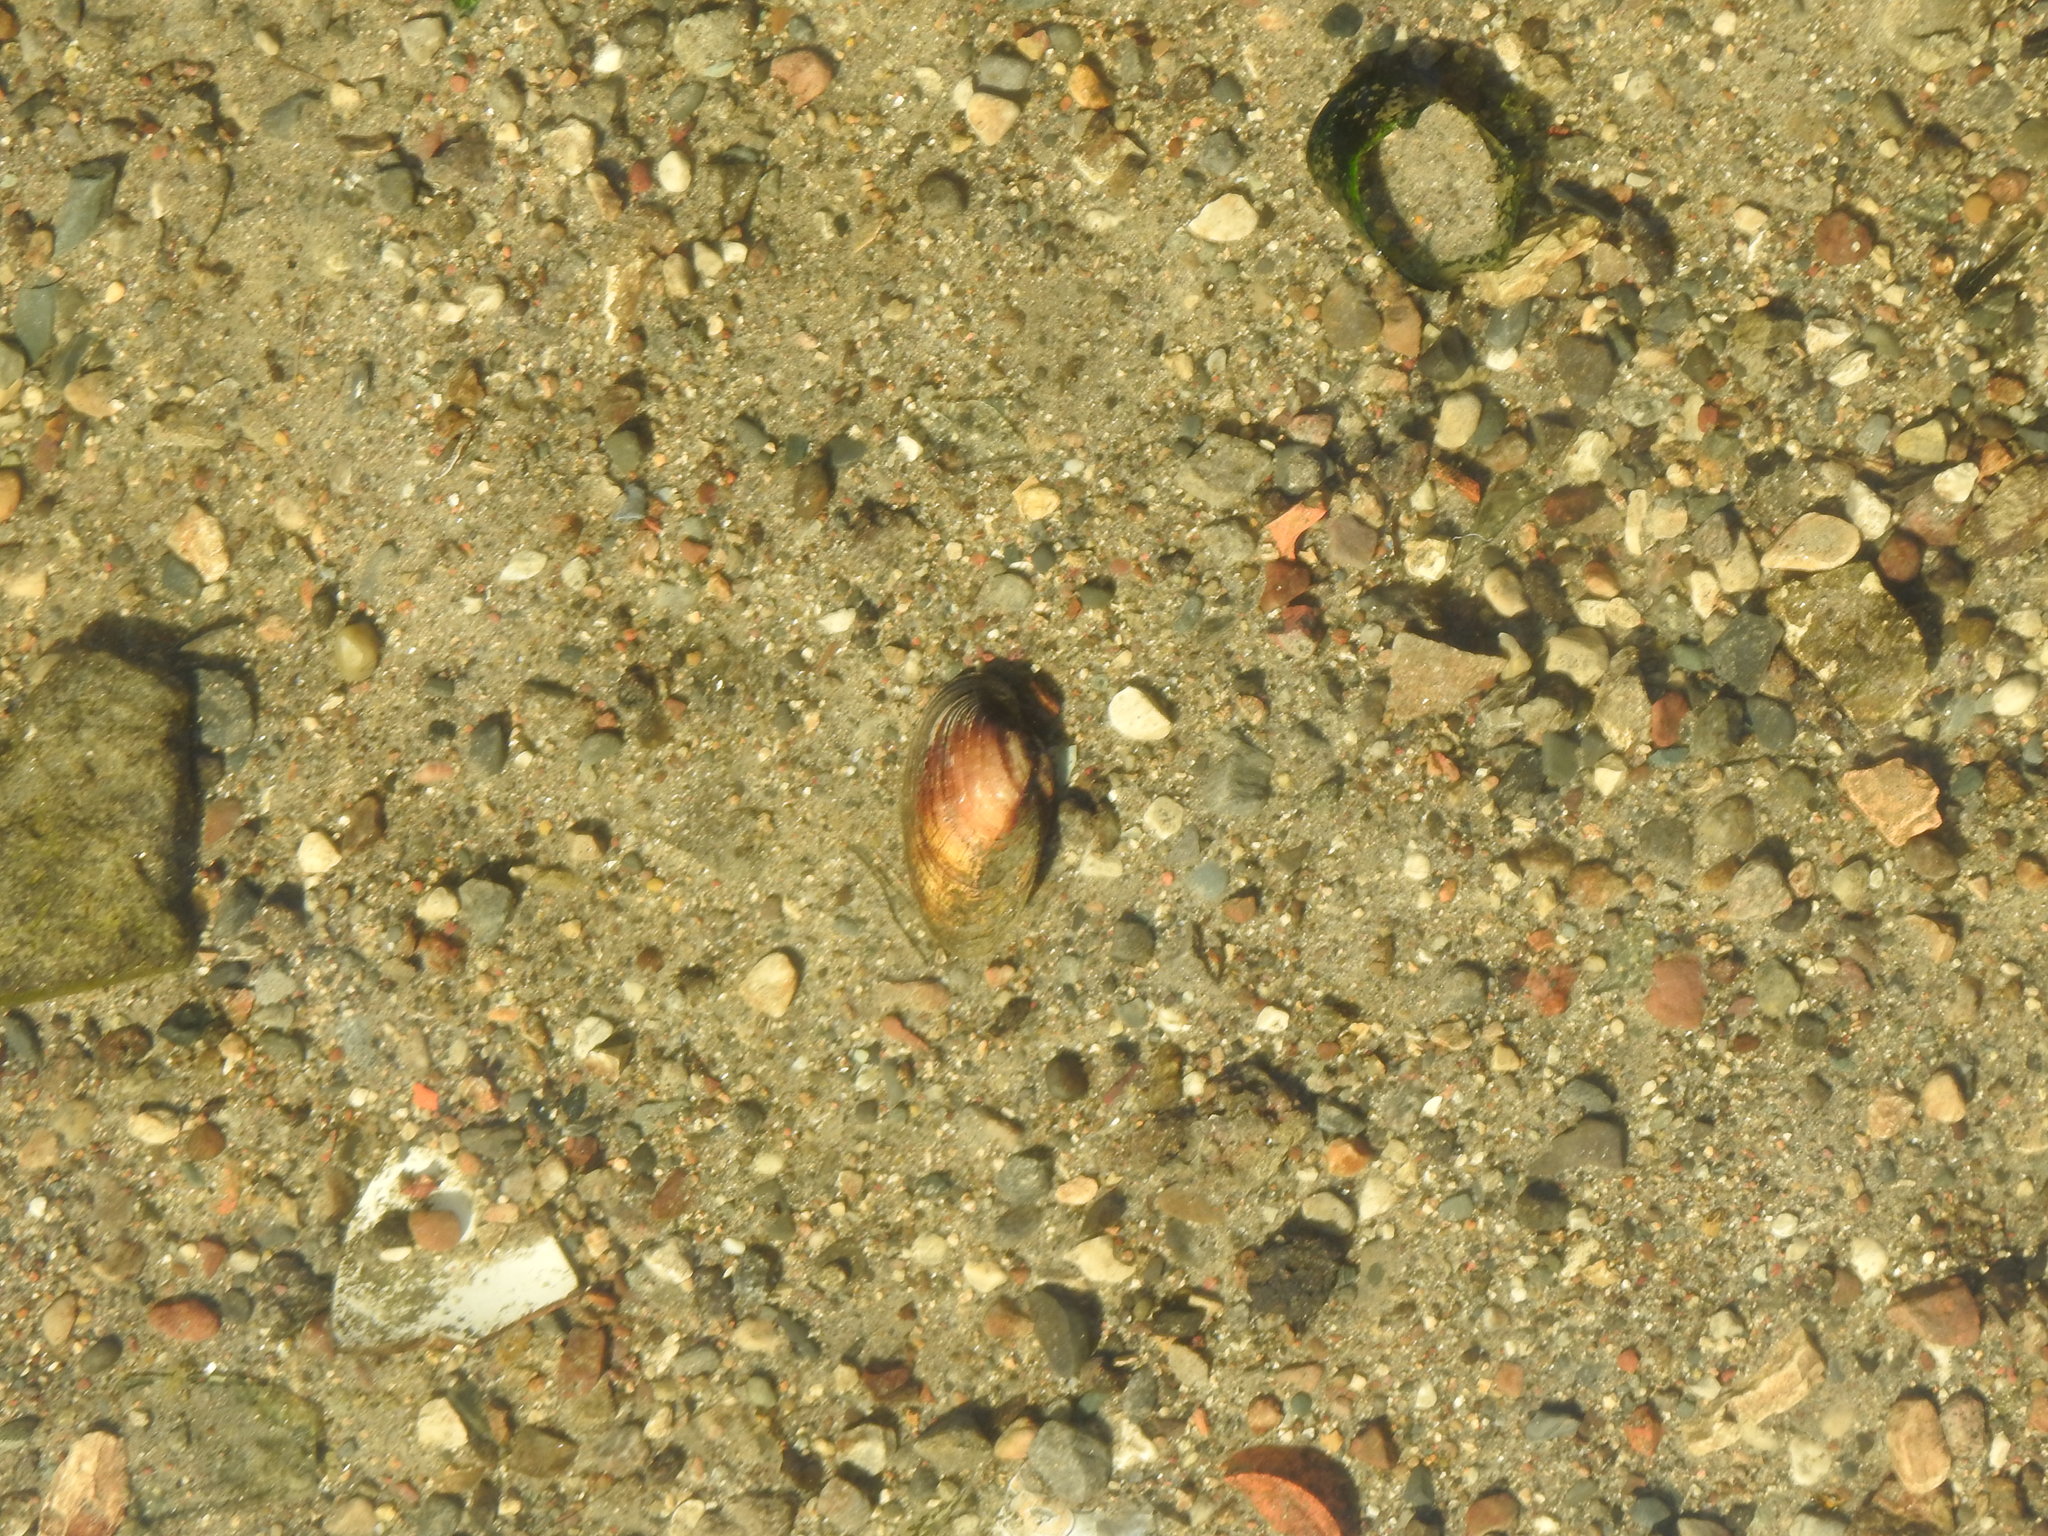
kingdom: Animalia
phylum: Mollusca
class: Bivalvia
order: Unionida
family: Unionidae
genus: Lampsilis
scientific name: Lampsilis siliquoidea
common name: Fatmucket
